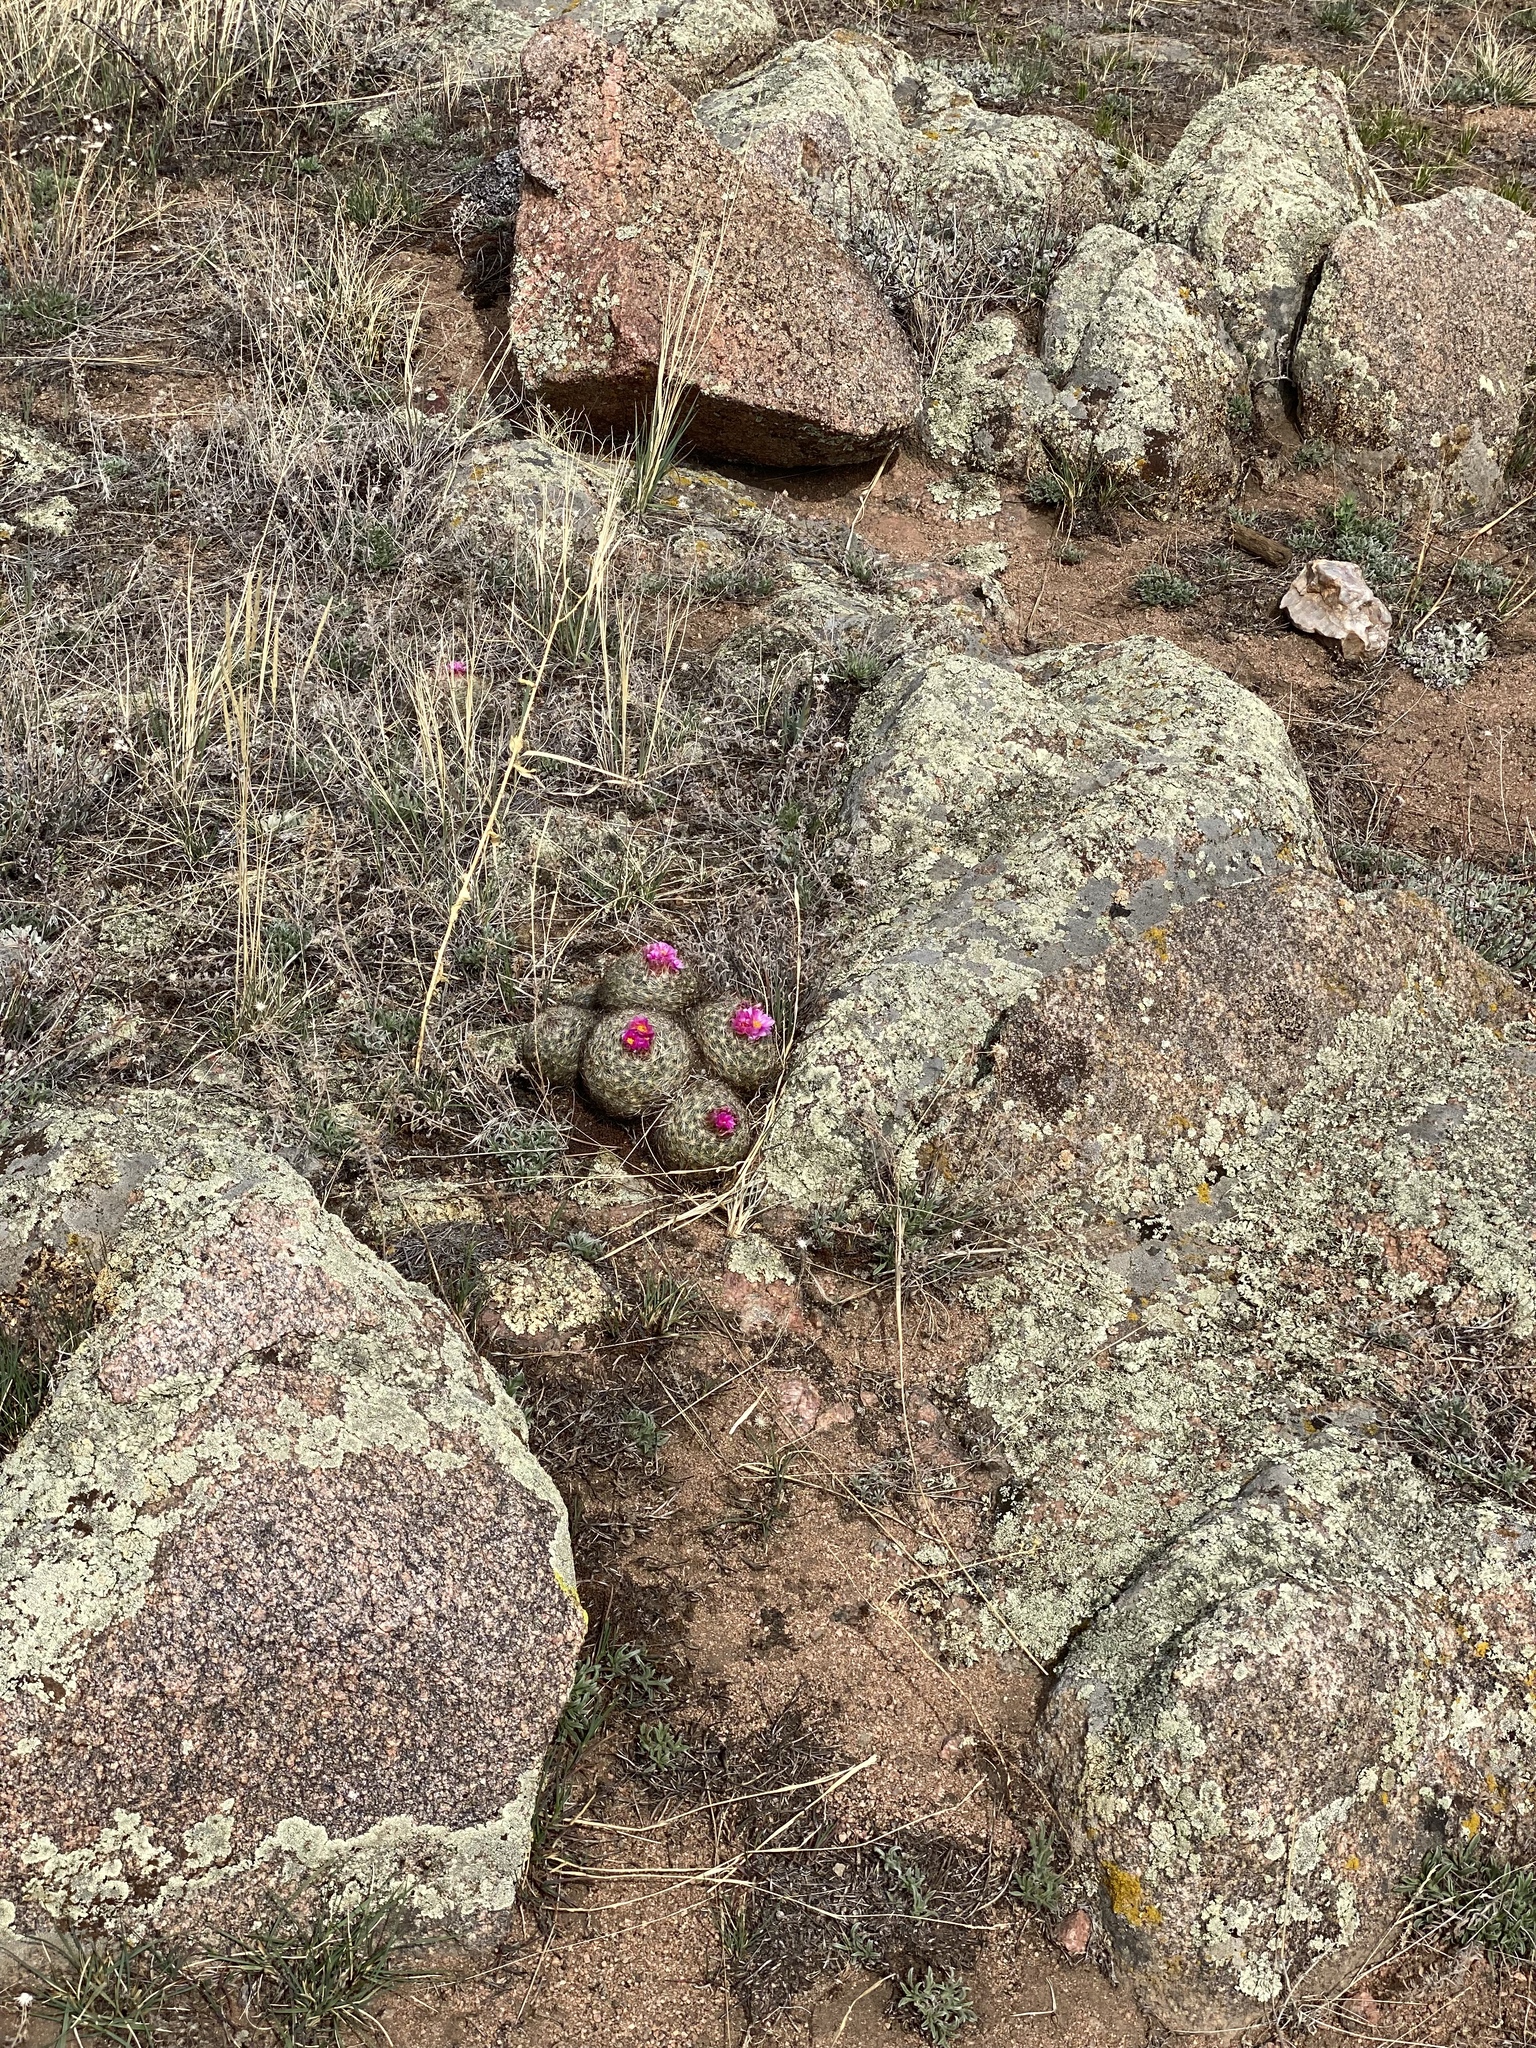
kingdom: Plantae
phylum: Tracheophyta
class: Magnoliopsida
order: Caryophyllales
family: Cactaceae
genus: Pediocactus
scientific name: Pediocactus simpsonii
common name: Simpson's hedgehog cactus
